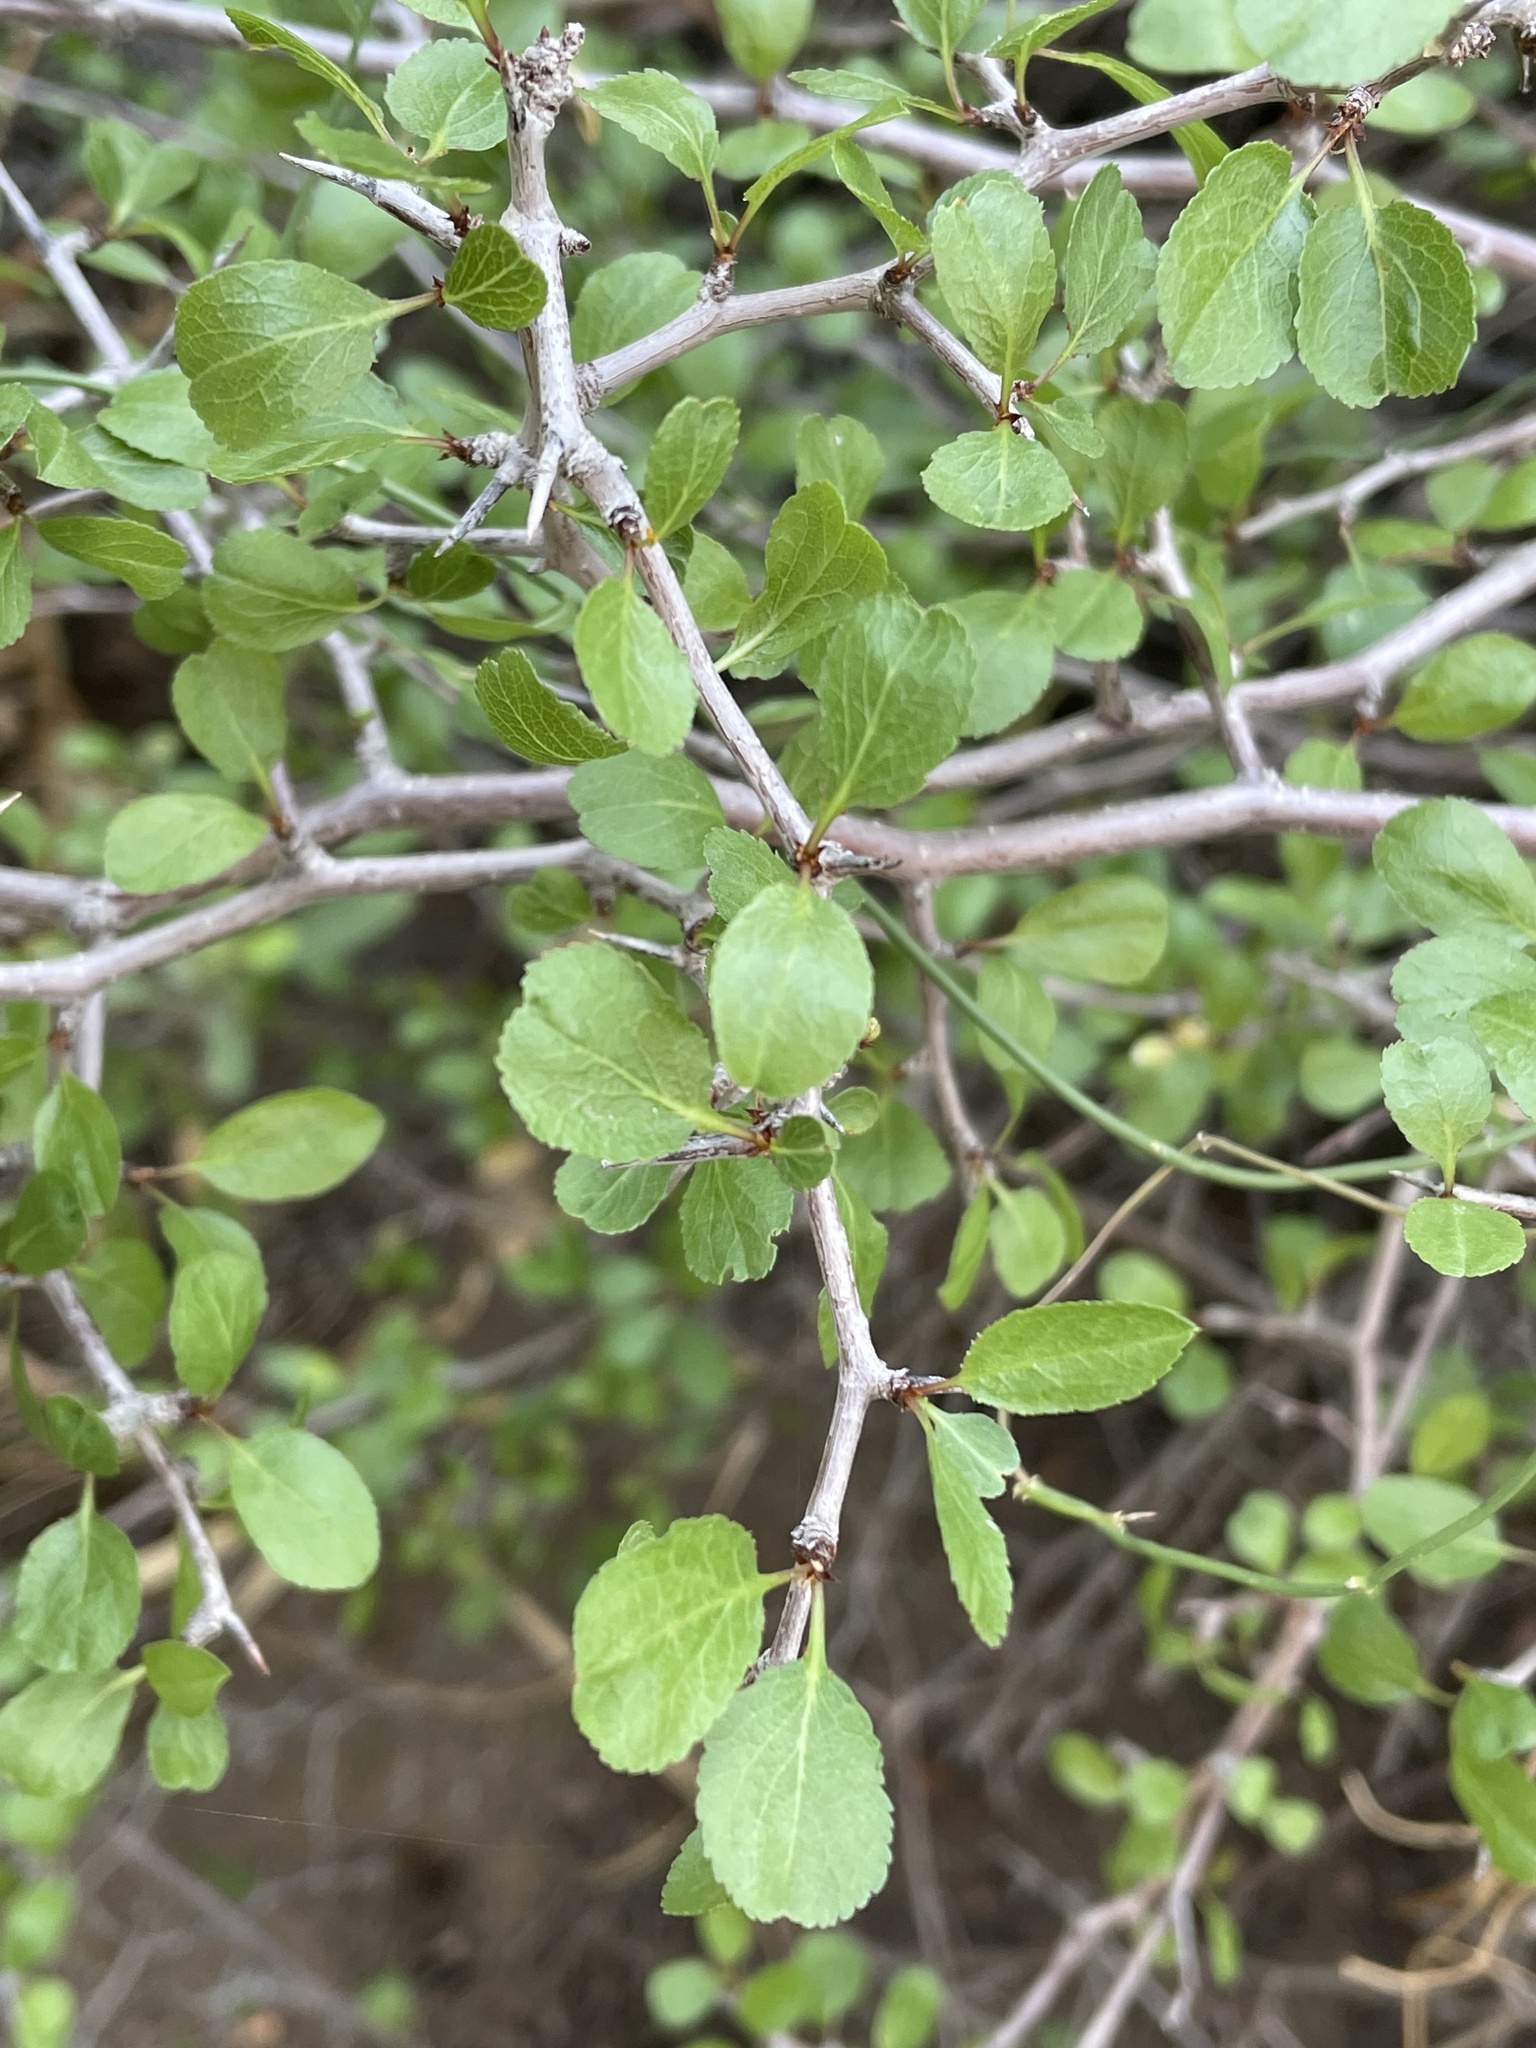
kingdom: Plantae
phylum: Tracheophyta
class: Magnoliopsida
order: Rosales
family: Rosaceae
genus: Prunus
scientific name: Prunus fremontii
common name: Desert apricot
